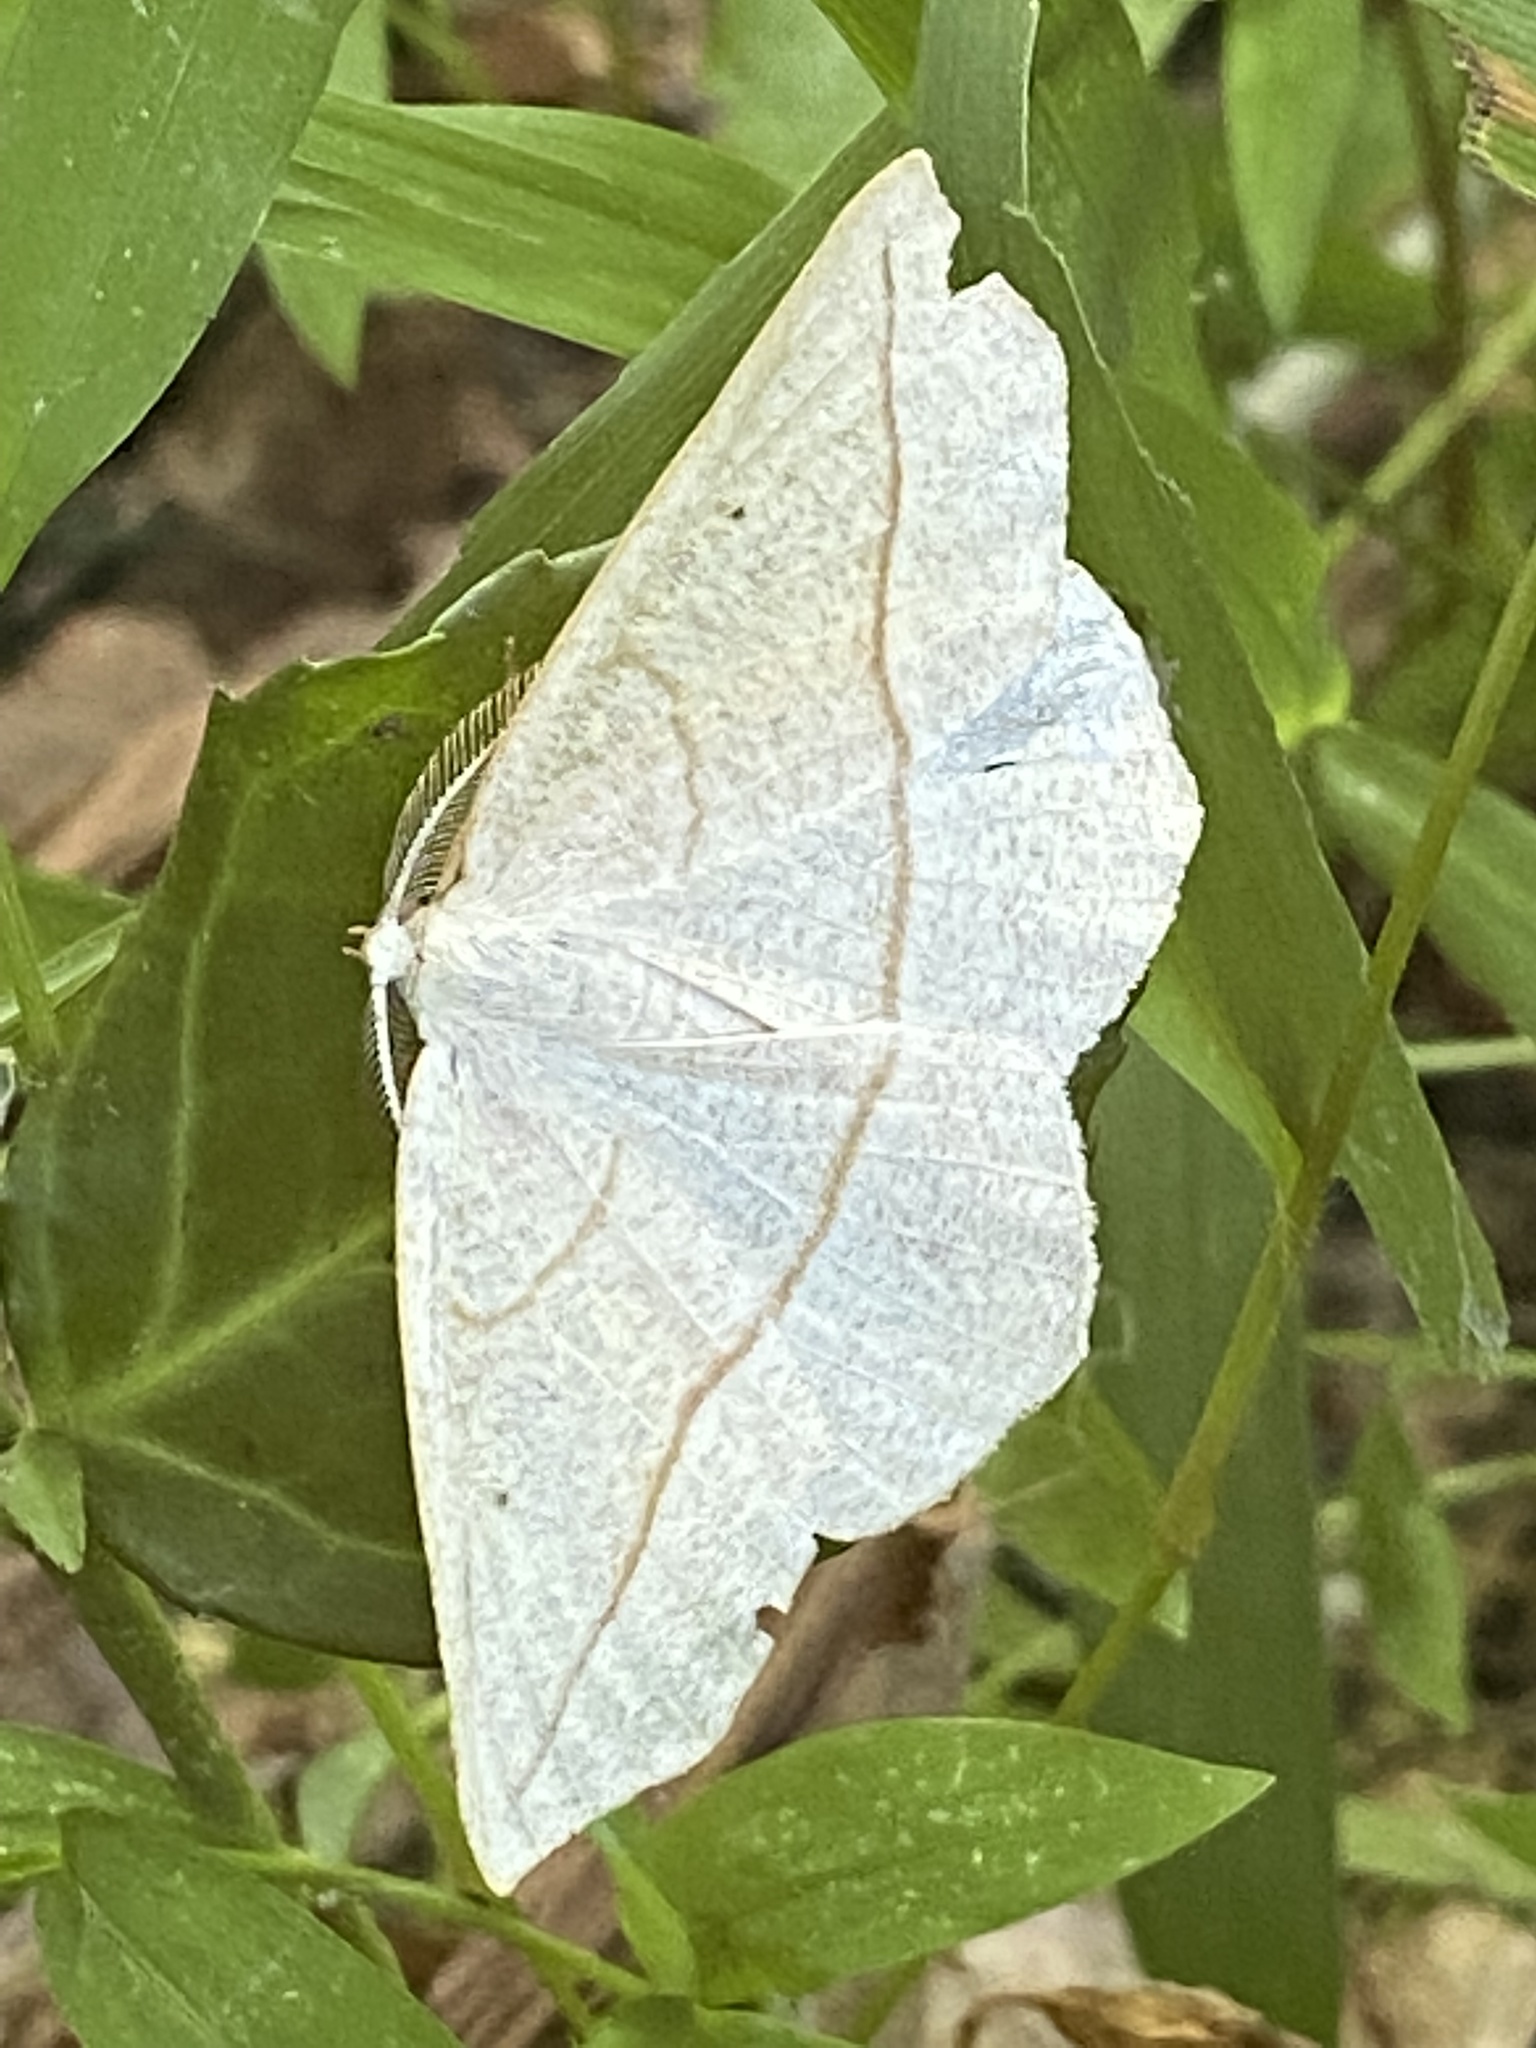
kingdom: Animalia
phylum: Arthropoda
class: Insecta
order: Lepidoptera
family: Geometridae
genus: Eusarca
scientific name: Eusarca confusaria
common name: Confused eusarca
